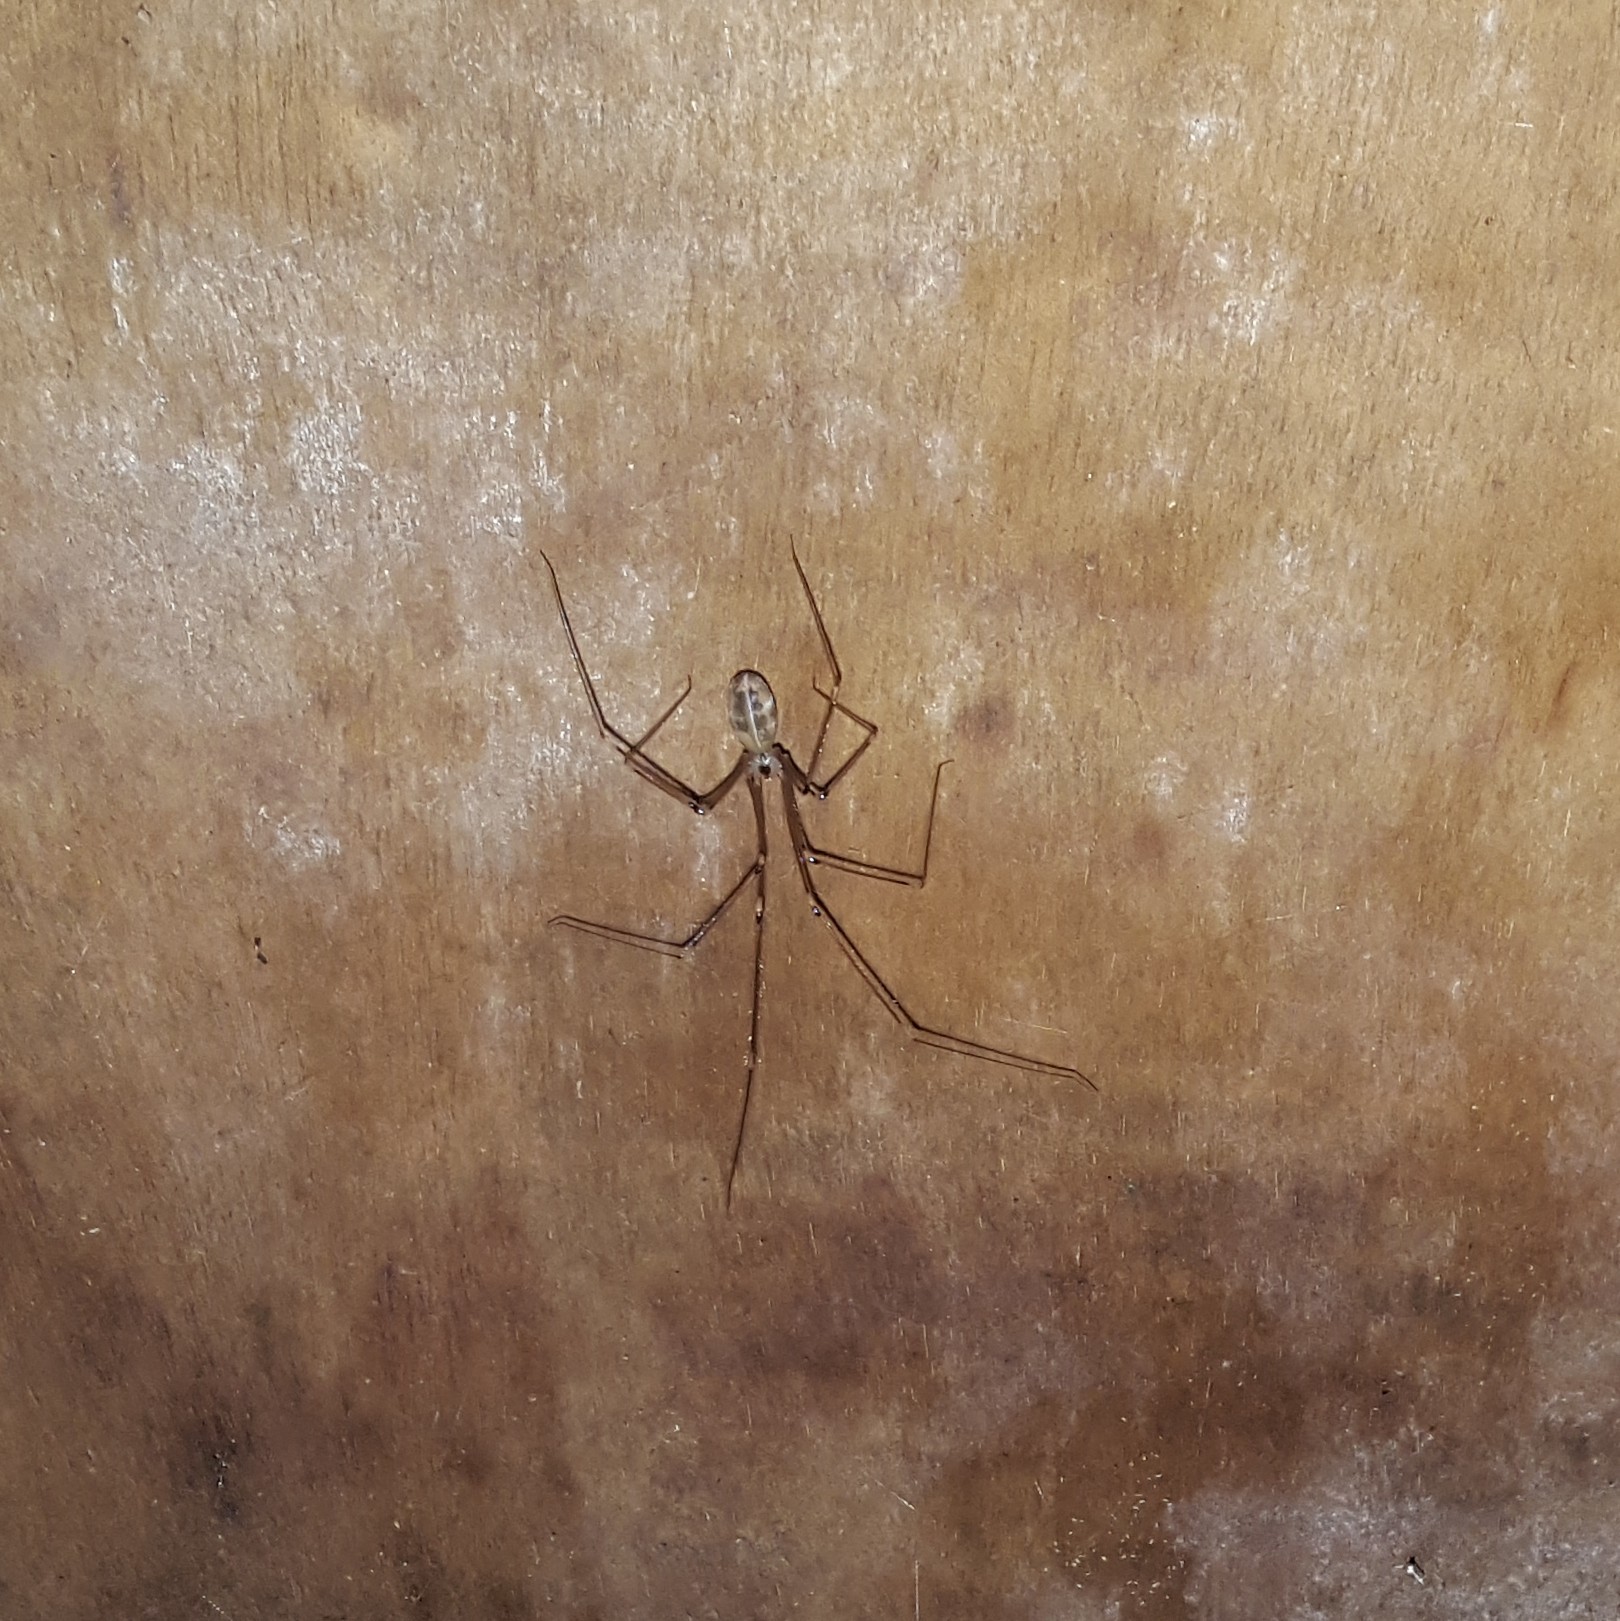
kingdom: Animalia
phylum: Arthropoda
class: Arachnida
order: Araneae
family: Pholcidae
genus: Pholcus
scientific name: Pholcus phalangioides
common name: Longbodied cellar spider
